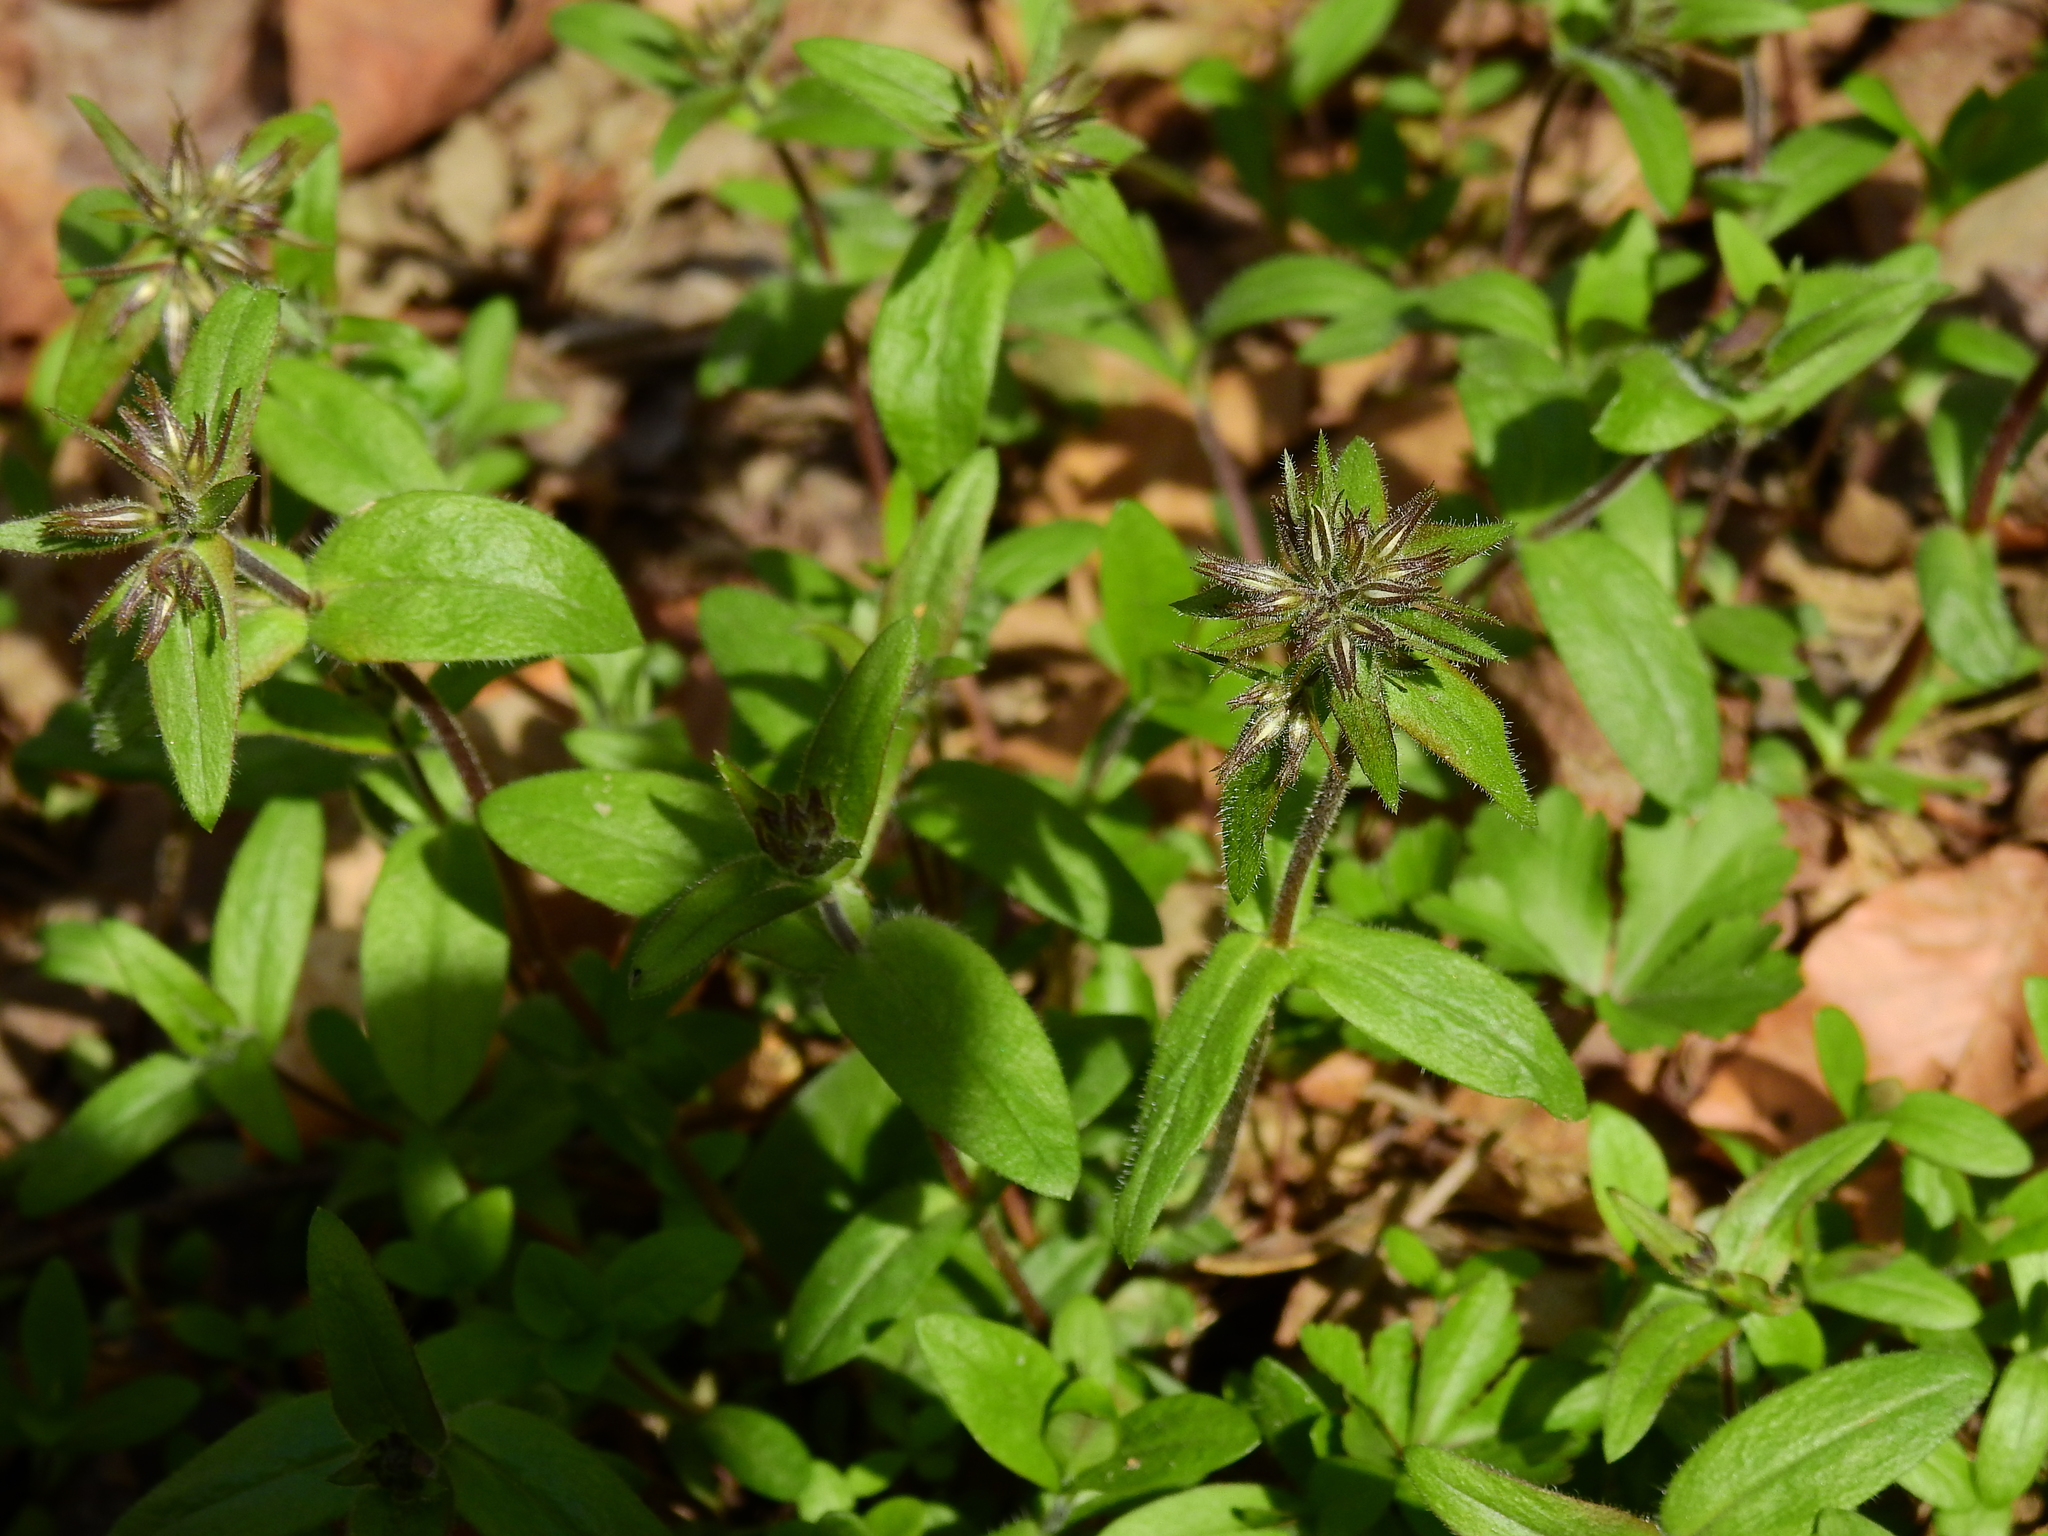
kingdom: Plantae
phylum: Tracheophyta
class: Magnoliopsida
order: Ericales
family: Polemoniaceae
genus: Phlox
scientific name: Phlox divaricata
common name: Blue phlox
